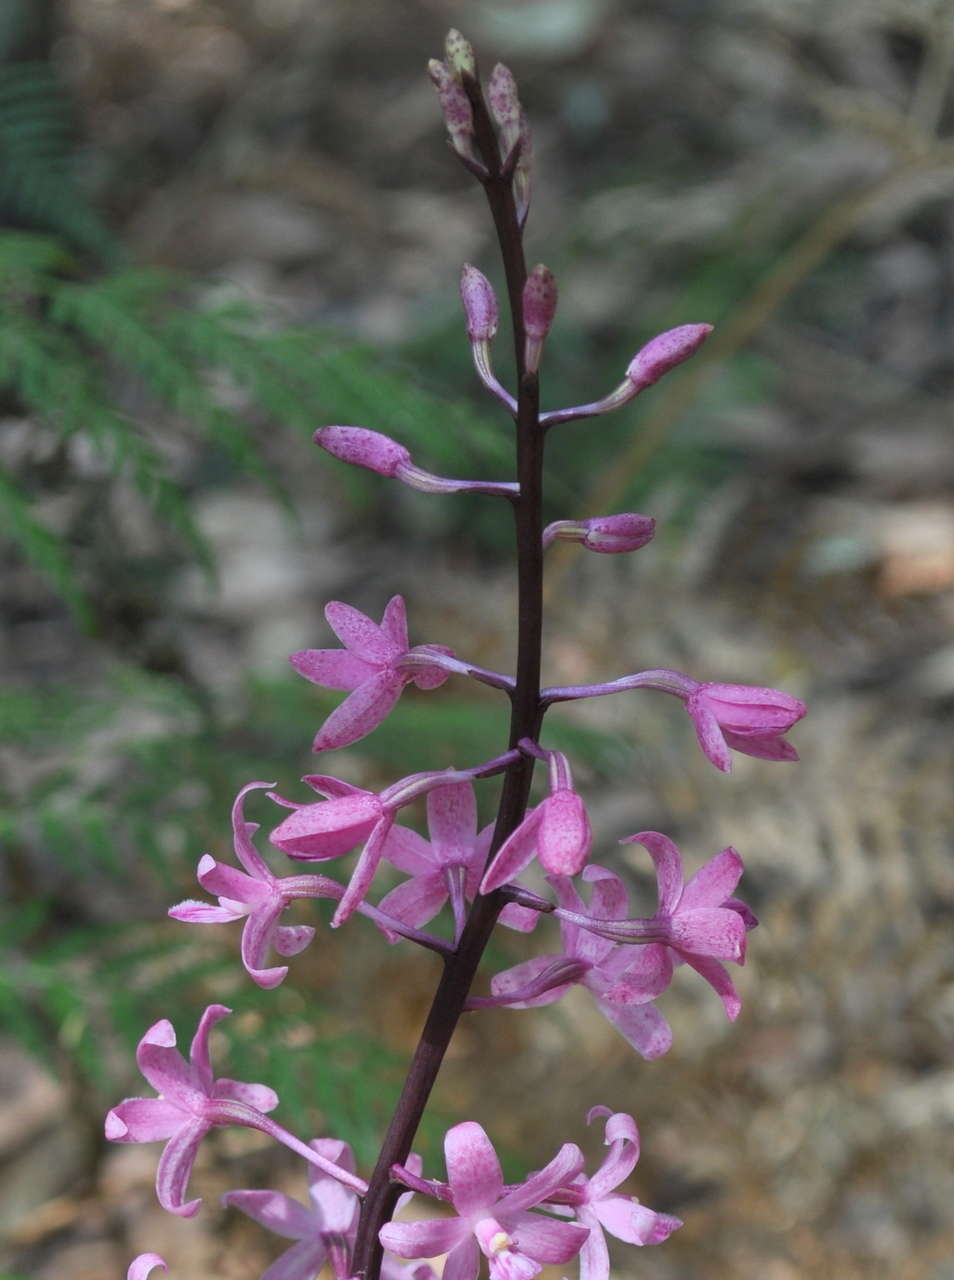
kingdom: Plantae
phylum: Tracheophyta
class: Liliopsida
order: Asparagales
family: Orchidaceae
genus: Dipodium
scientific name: Dipodium roseum
